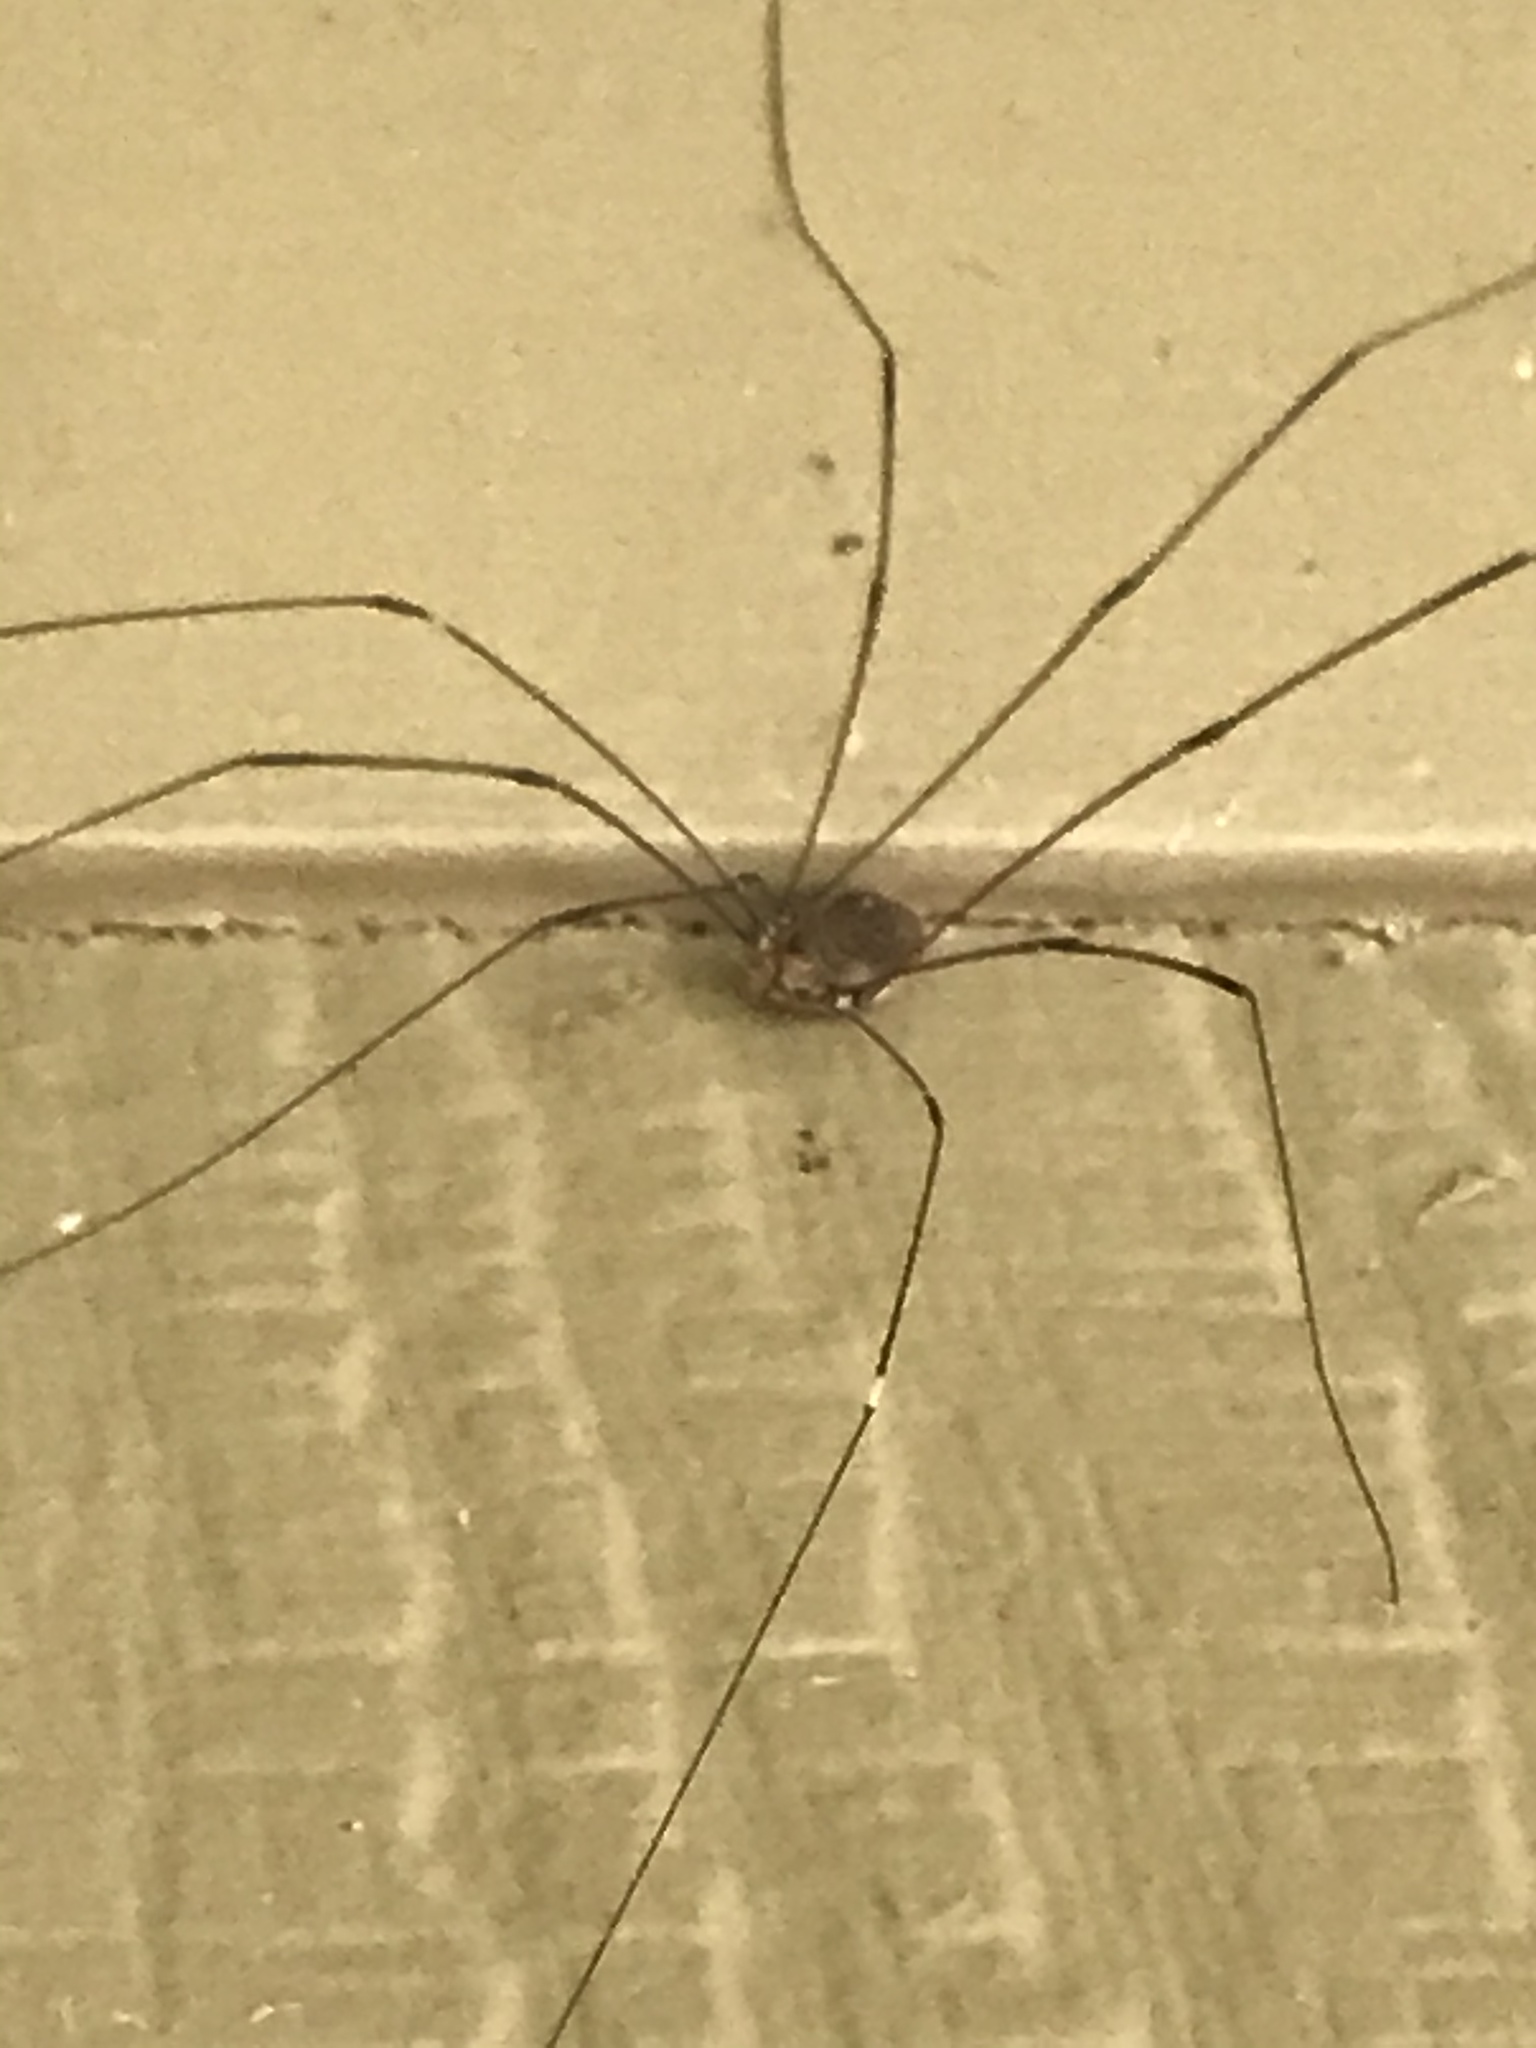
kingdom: Animalia
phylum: Arthropoda
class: Arachnida
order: Opiliones
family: Sclerosomatidae
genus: Leiobunum
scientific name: Leiobunum vittatum
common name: Eastern harvestman
